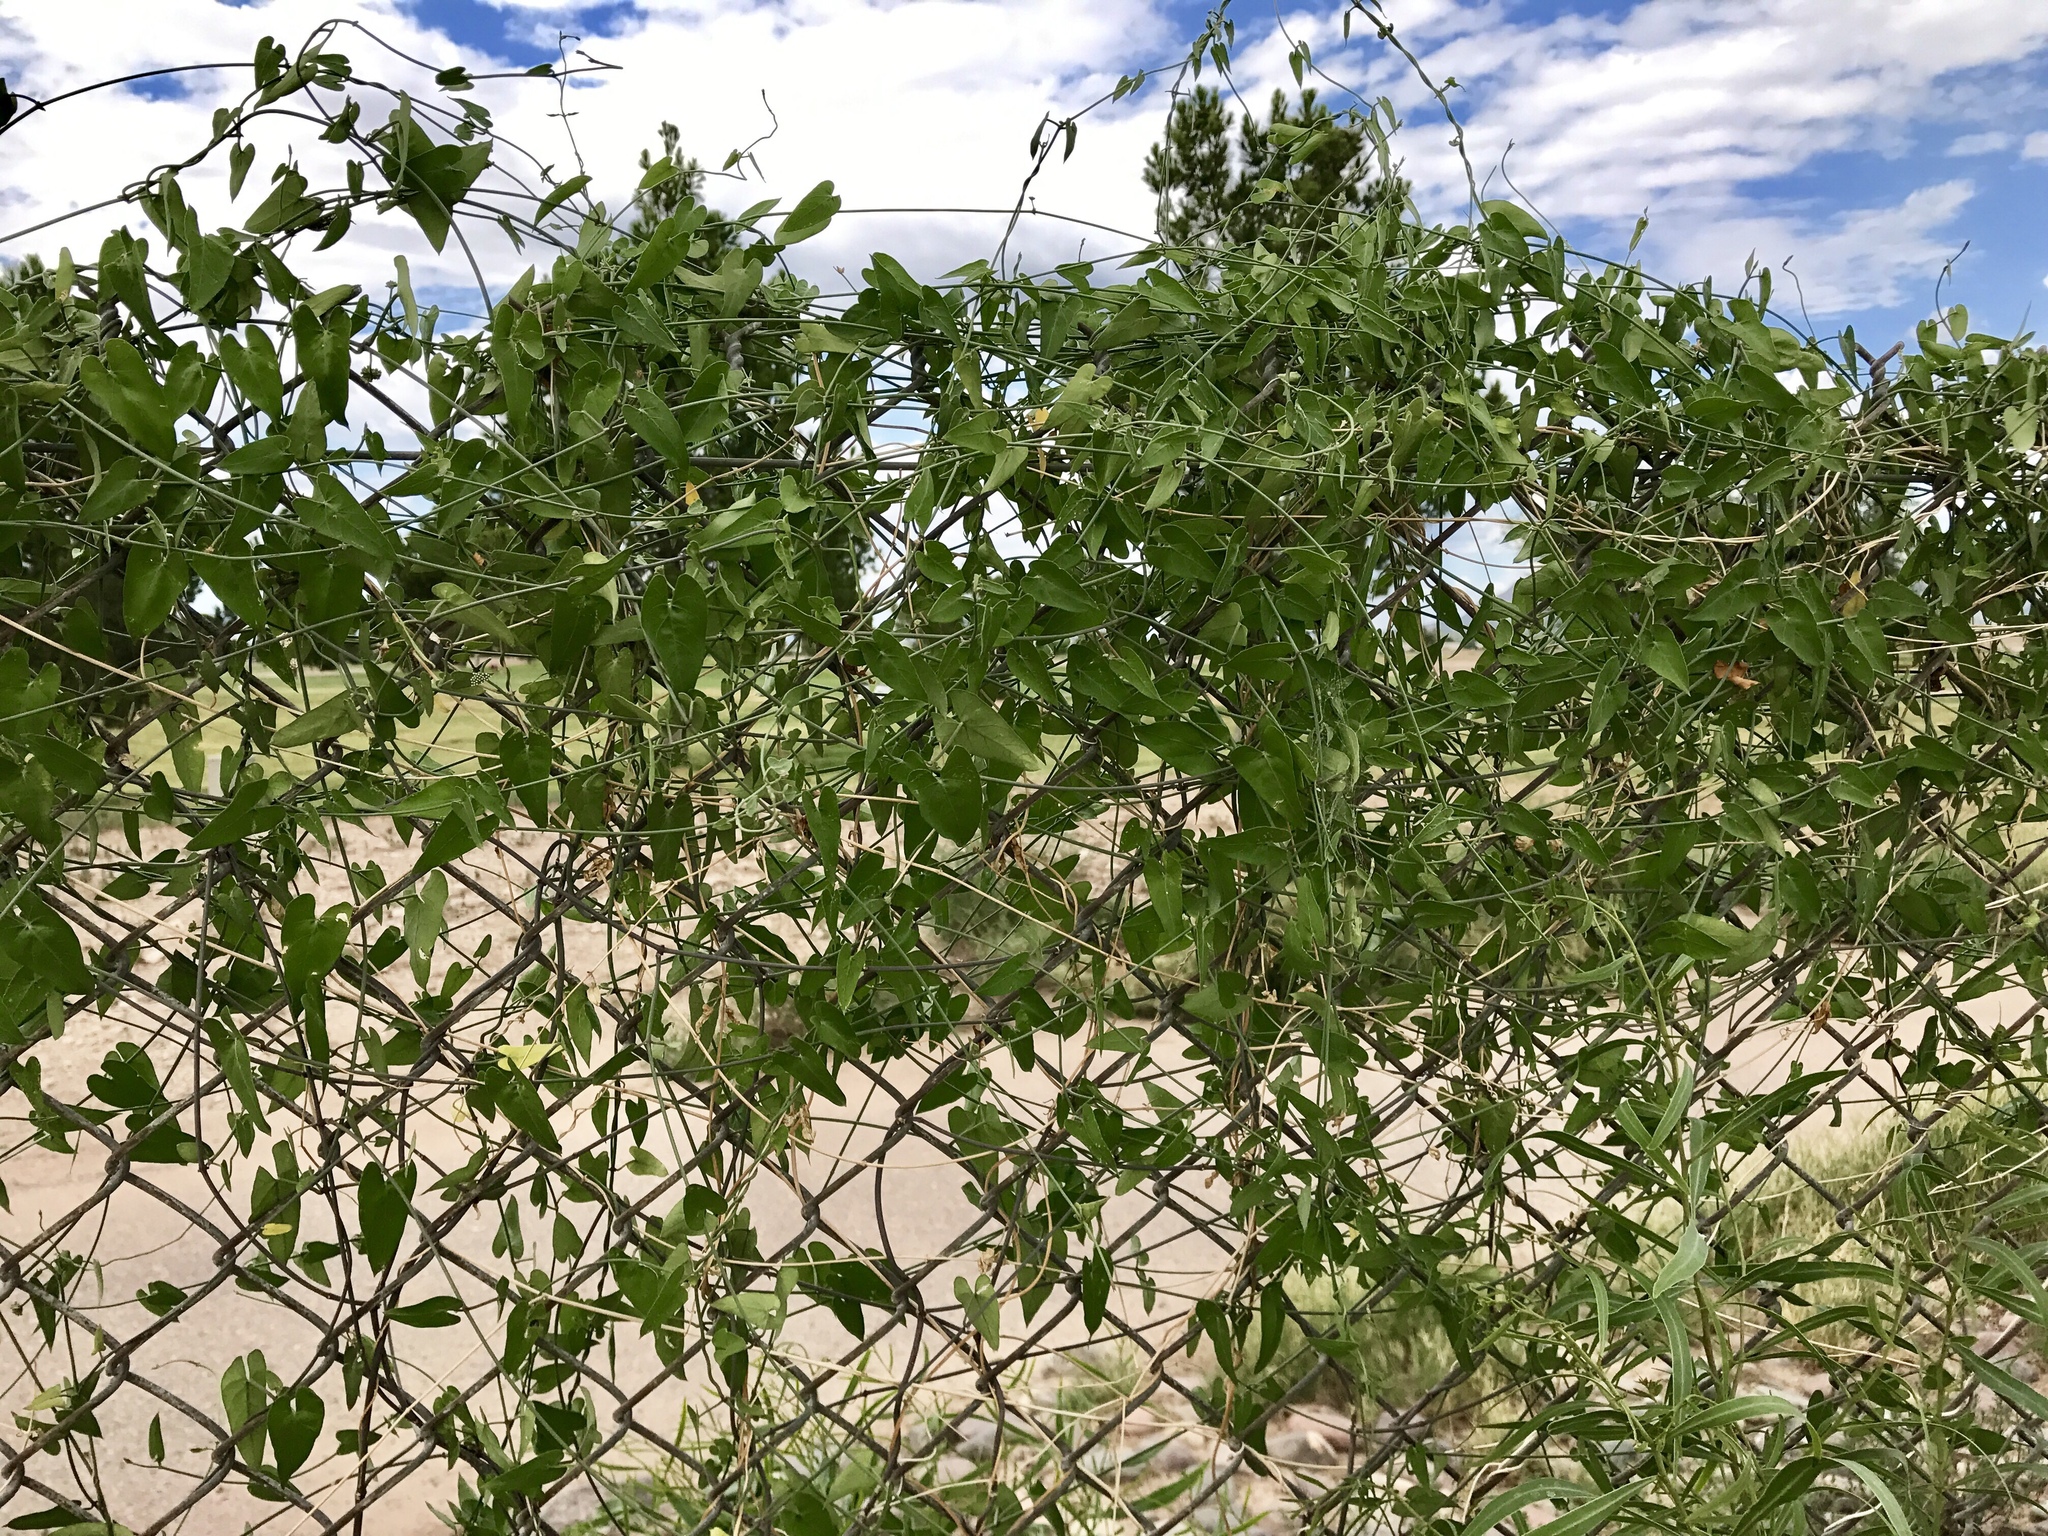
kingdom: Plantae
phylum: Tracheophyta
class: Magnoliopsida
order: Gentianales
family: Apocynaceae
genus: Funastrum
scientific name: Funastrum cynanchoides
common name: Climbing-milkweed
